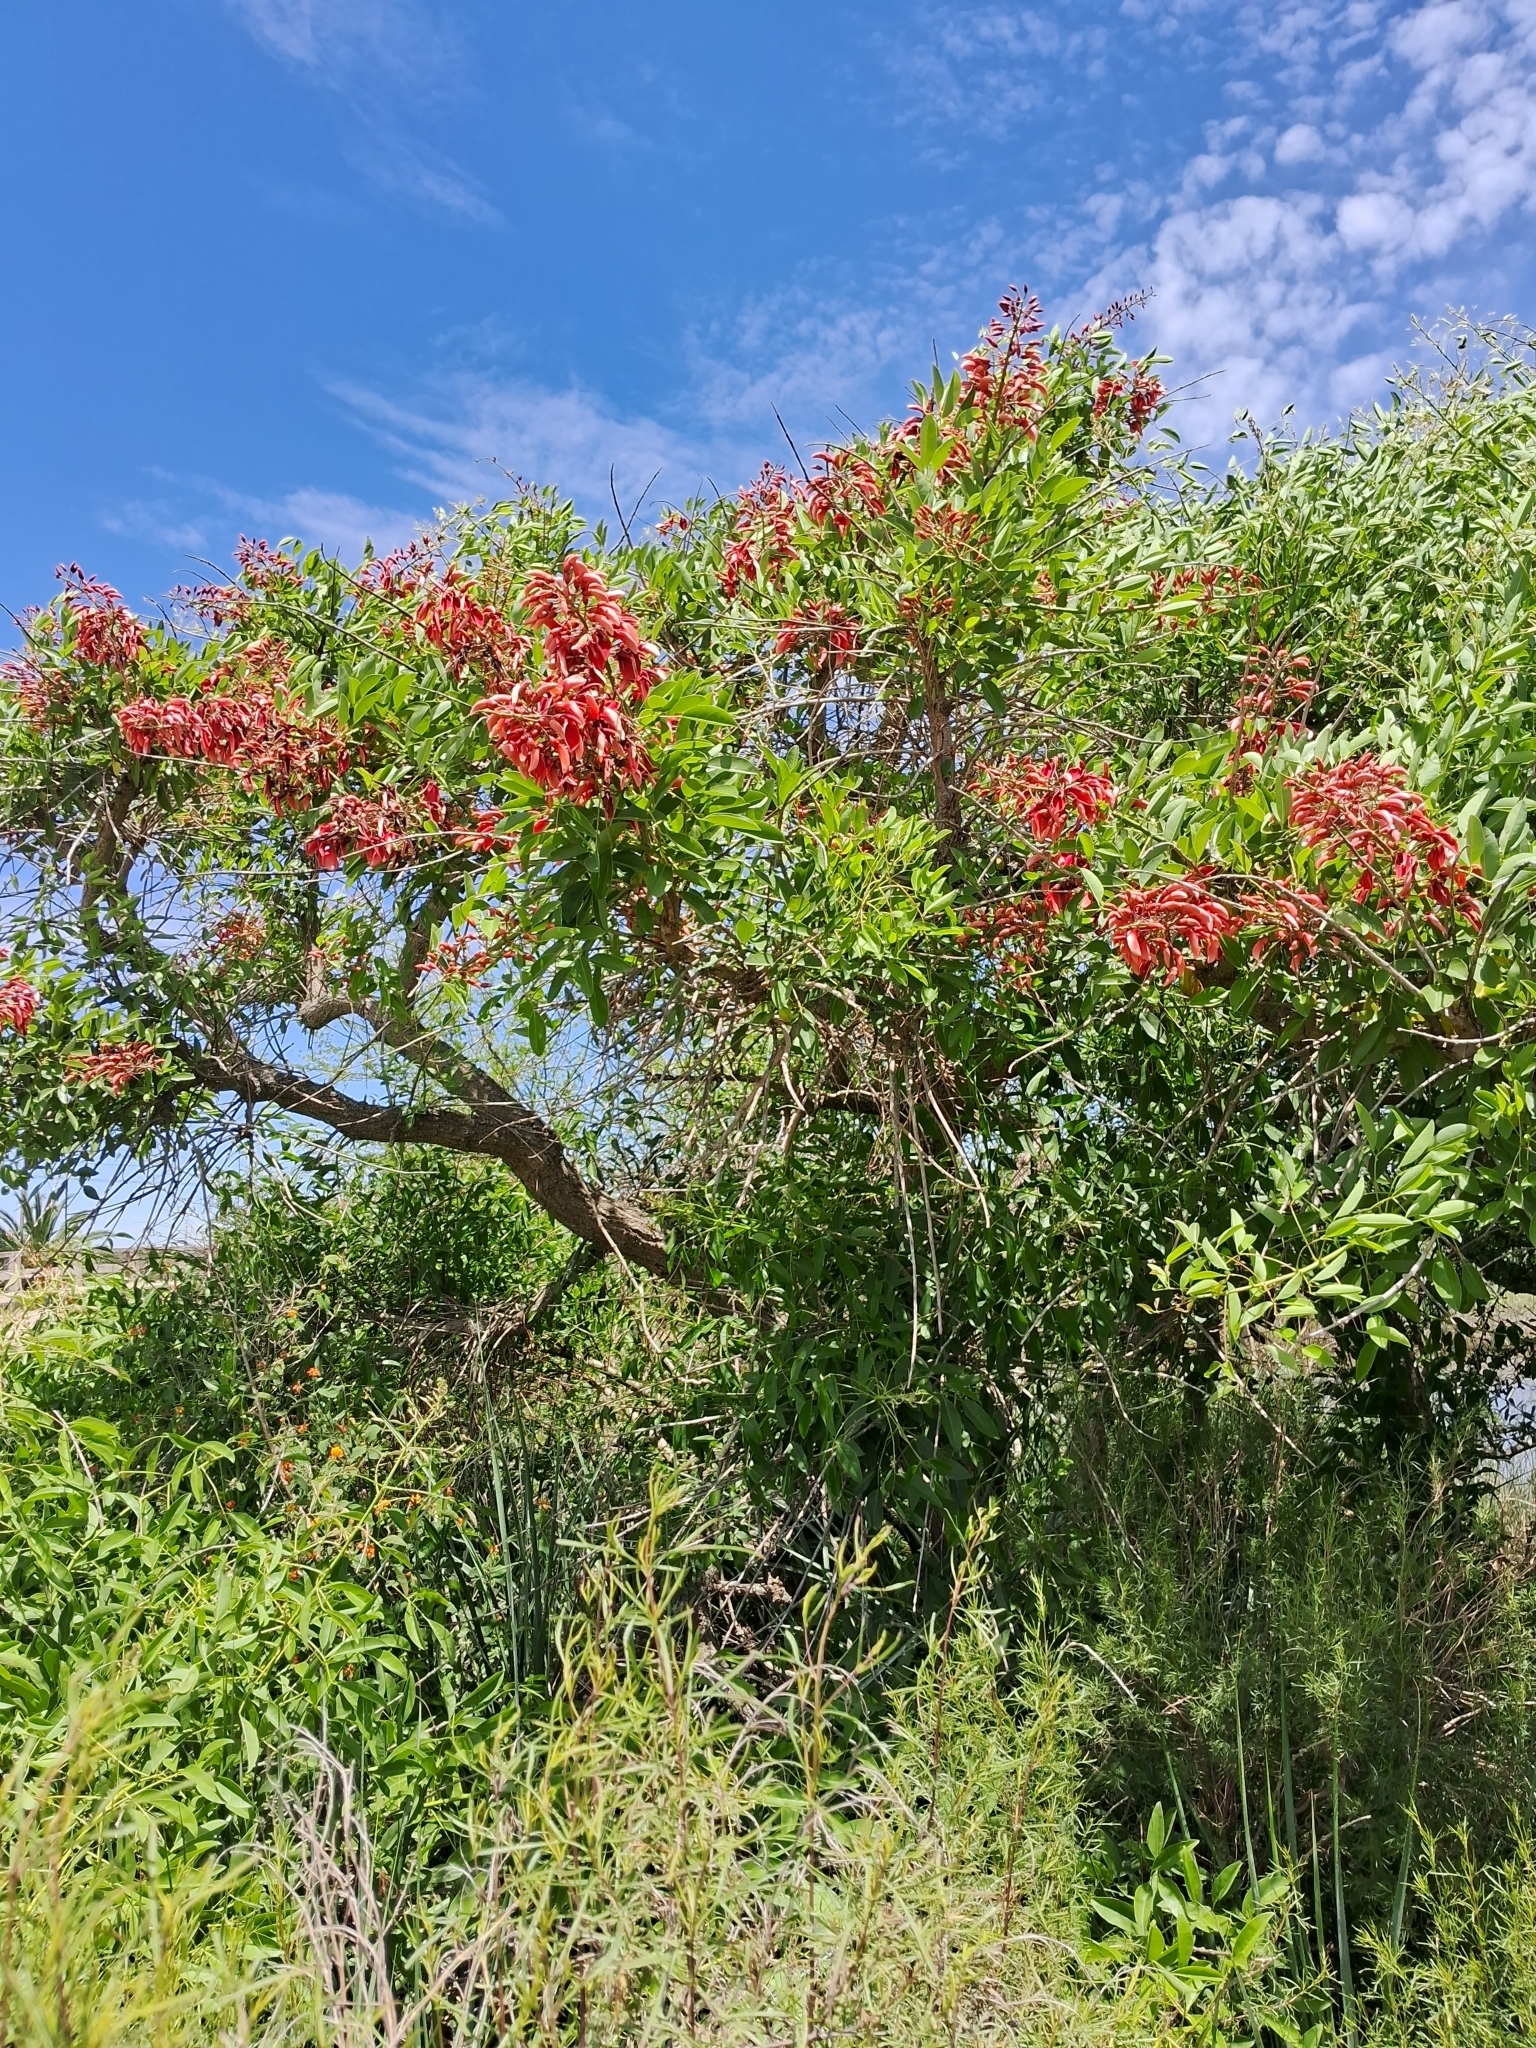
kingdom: Plantae
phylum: Tracheophyta
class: Magnoliopsida
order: Fabales
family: Fabaceae
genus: Erythrina
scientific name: Erythrina crista-galli
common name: Cockspur coral tree
